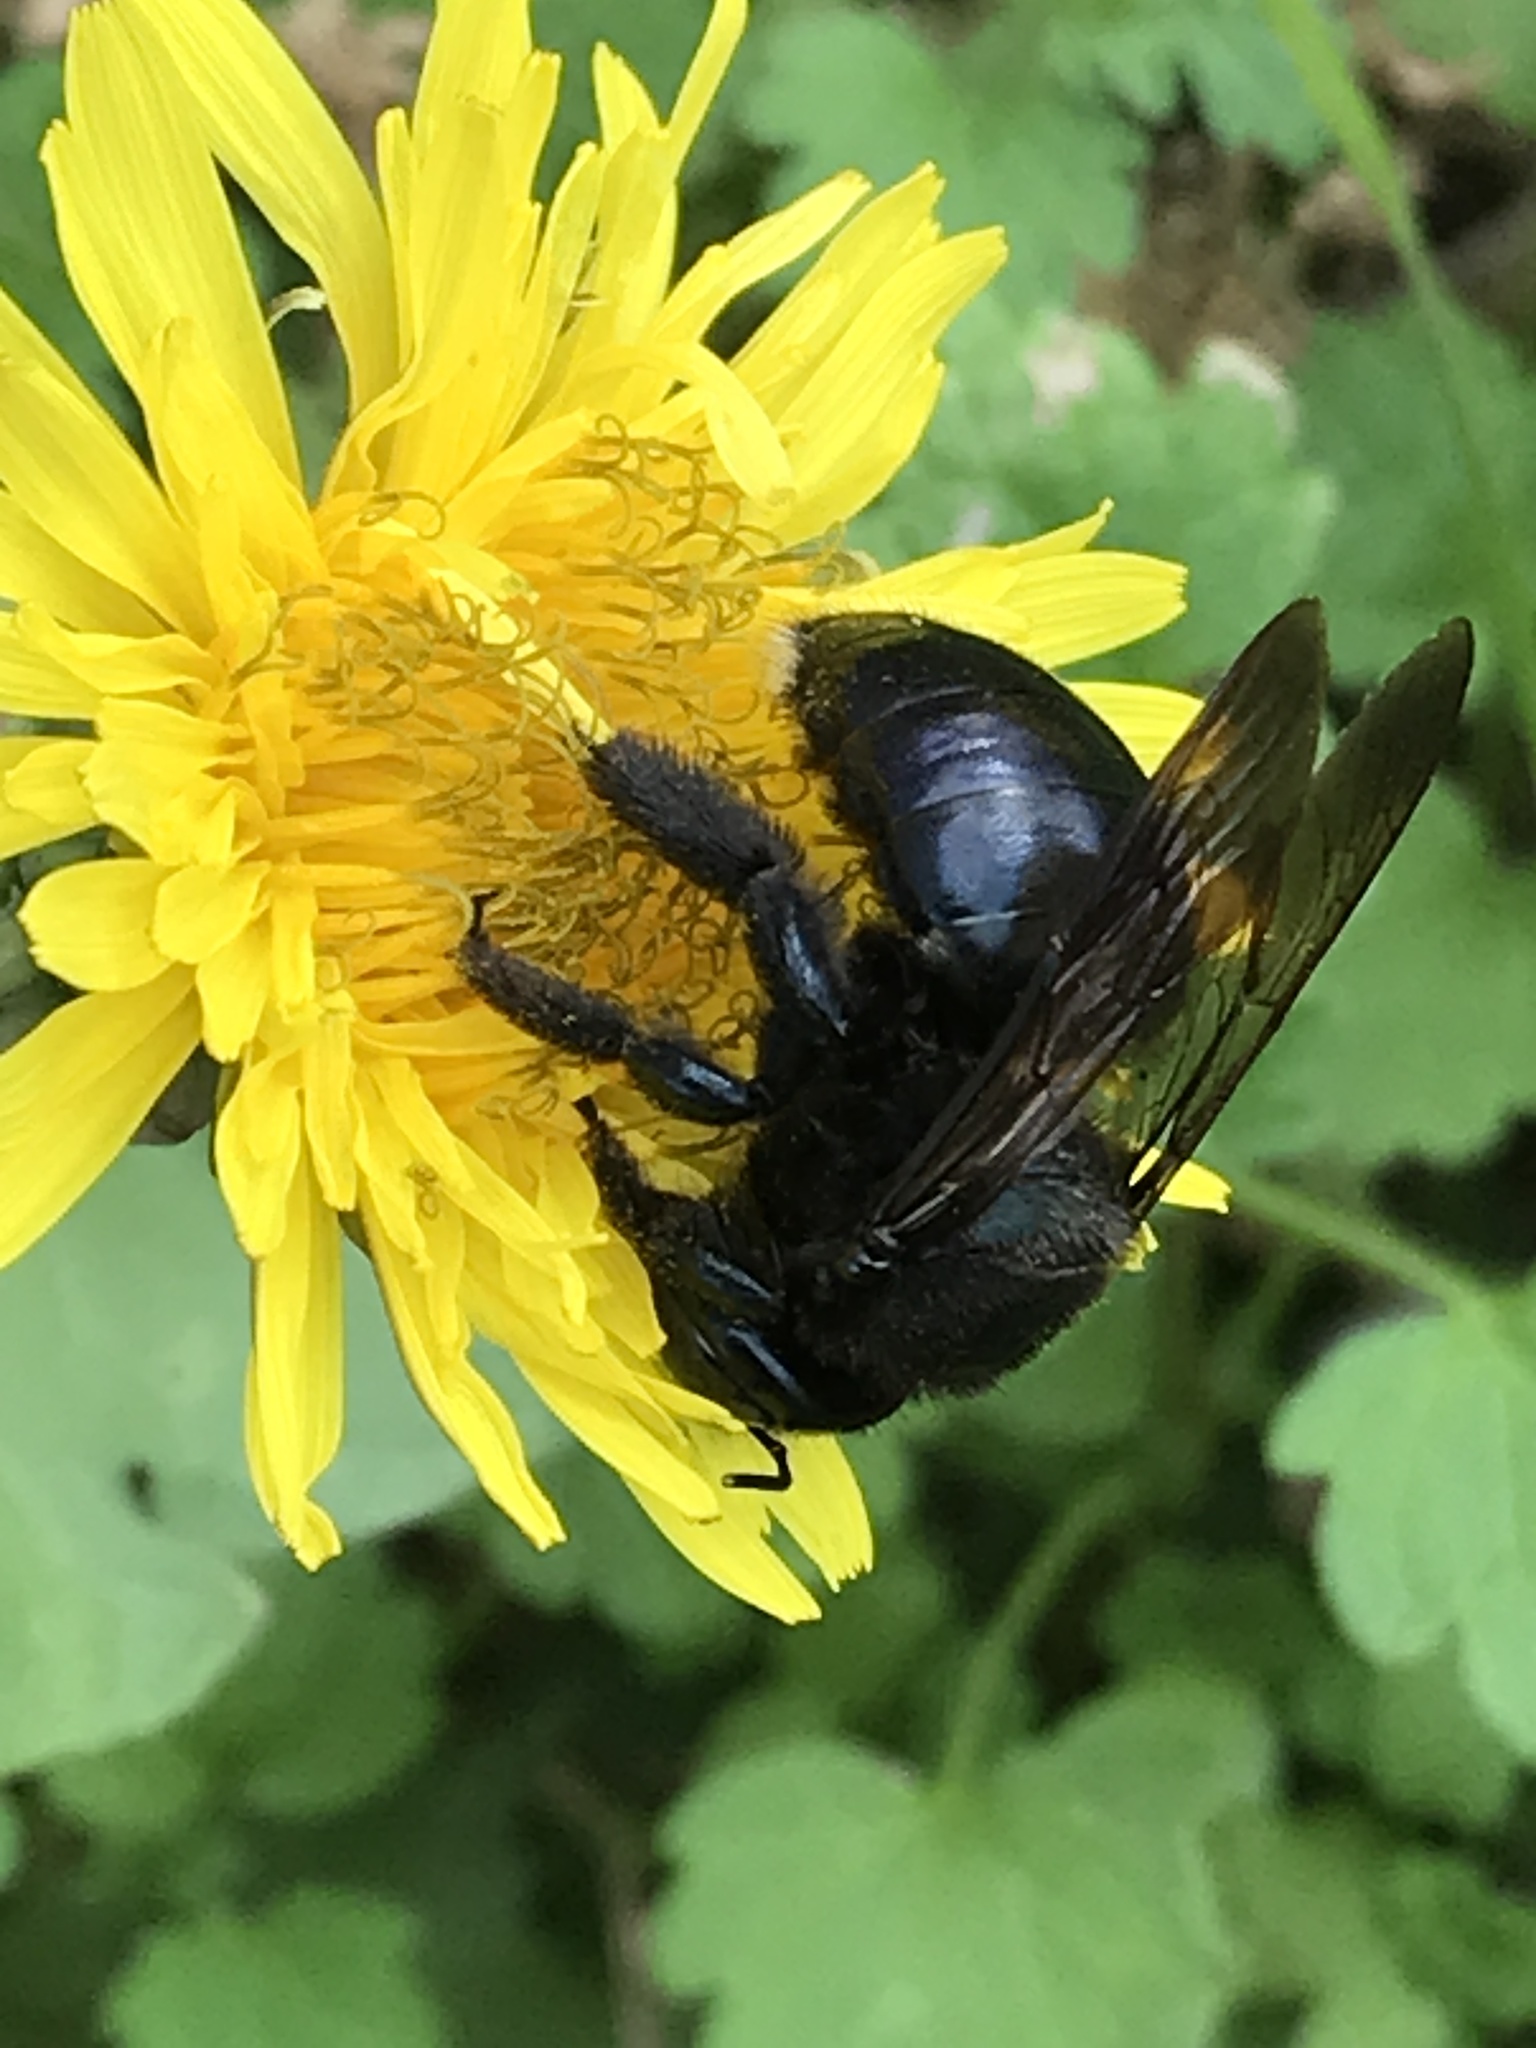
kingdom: Animalia
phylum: Arthropoda
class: Insecta
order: Hymenoptera
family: Apidae
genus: Xylocopa
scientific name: Xylocopa micans
